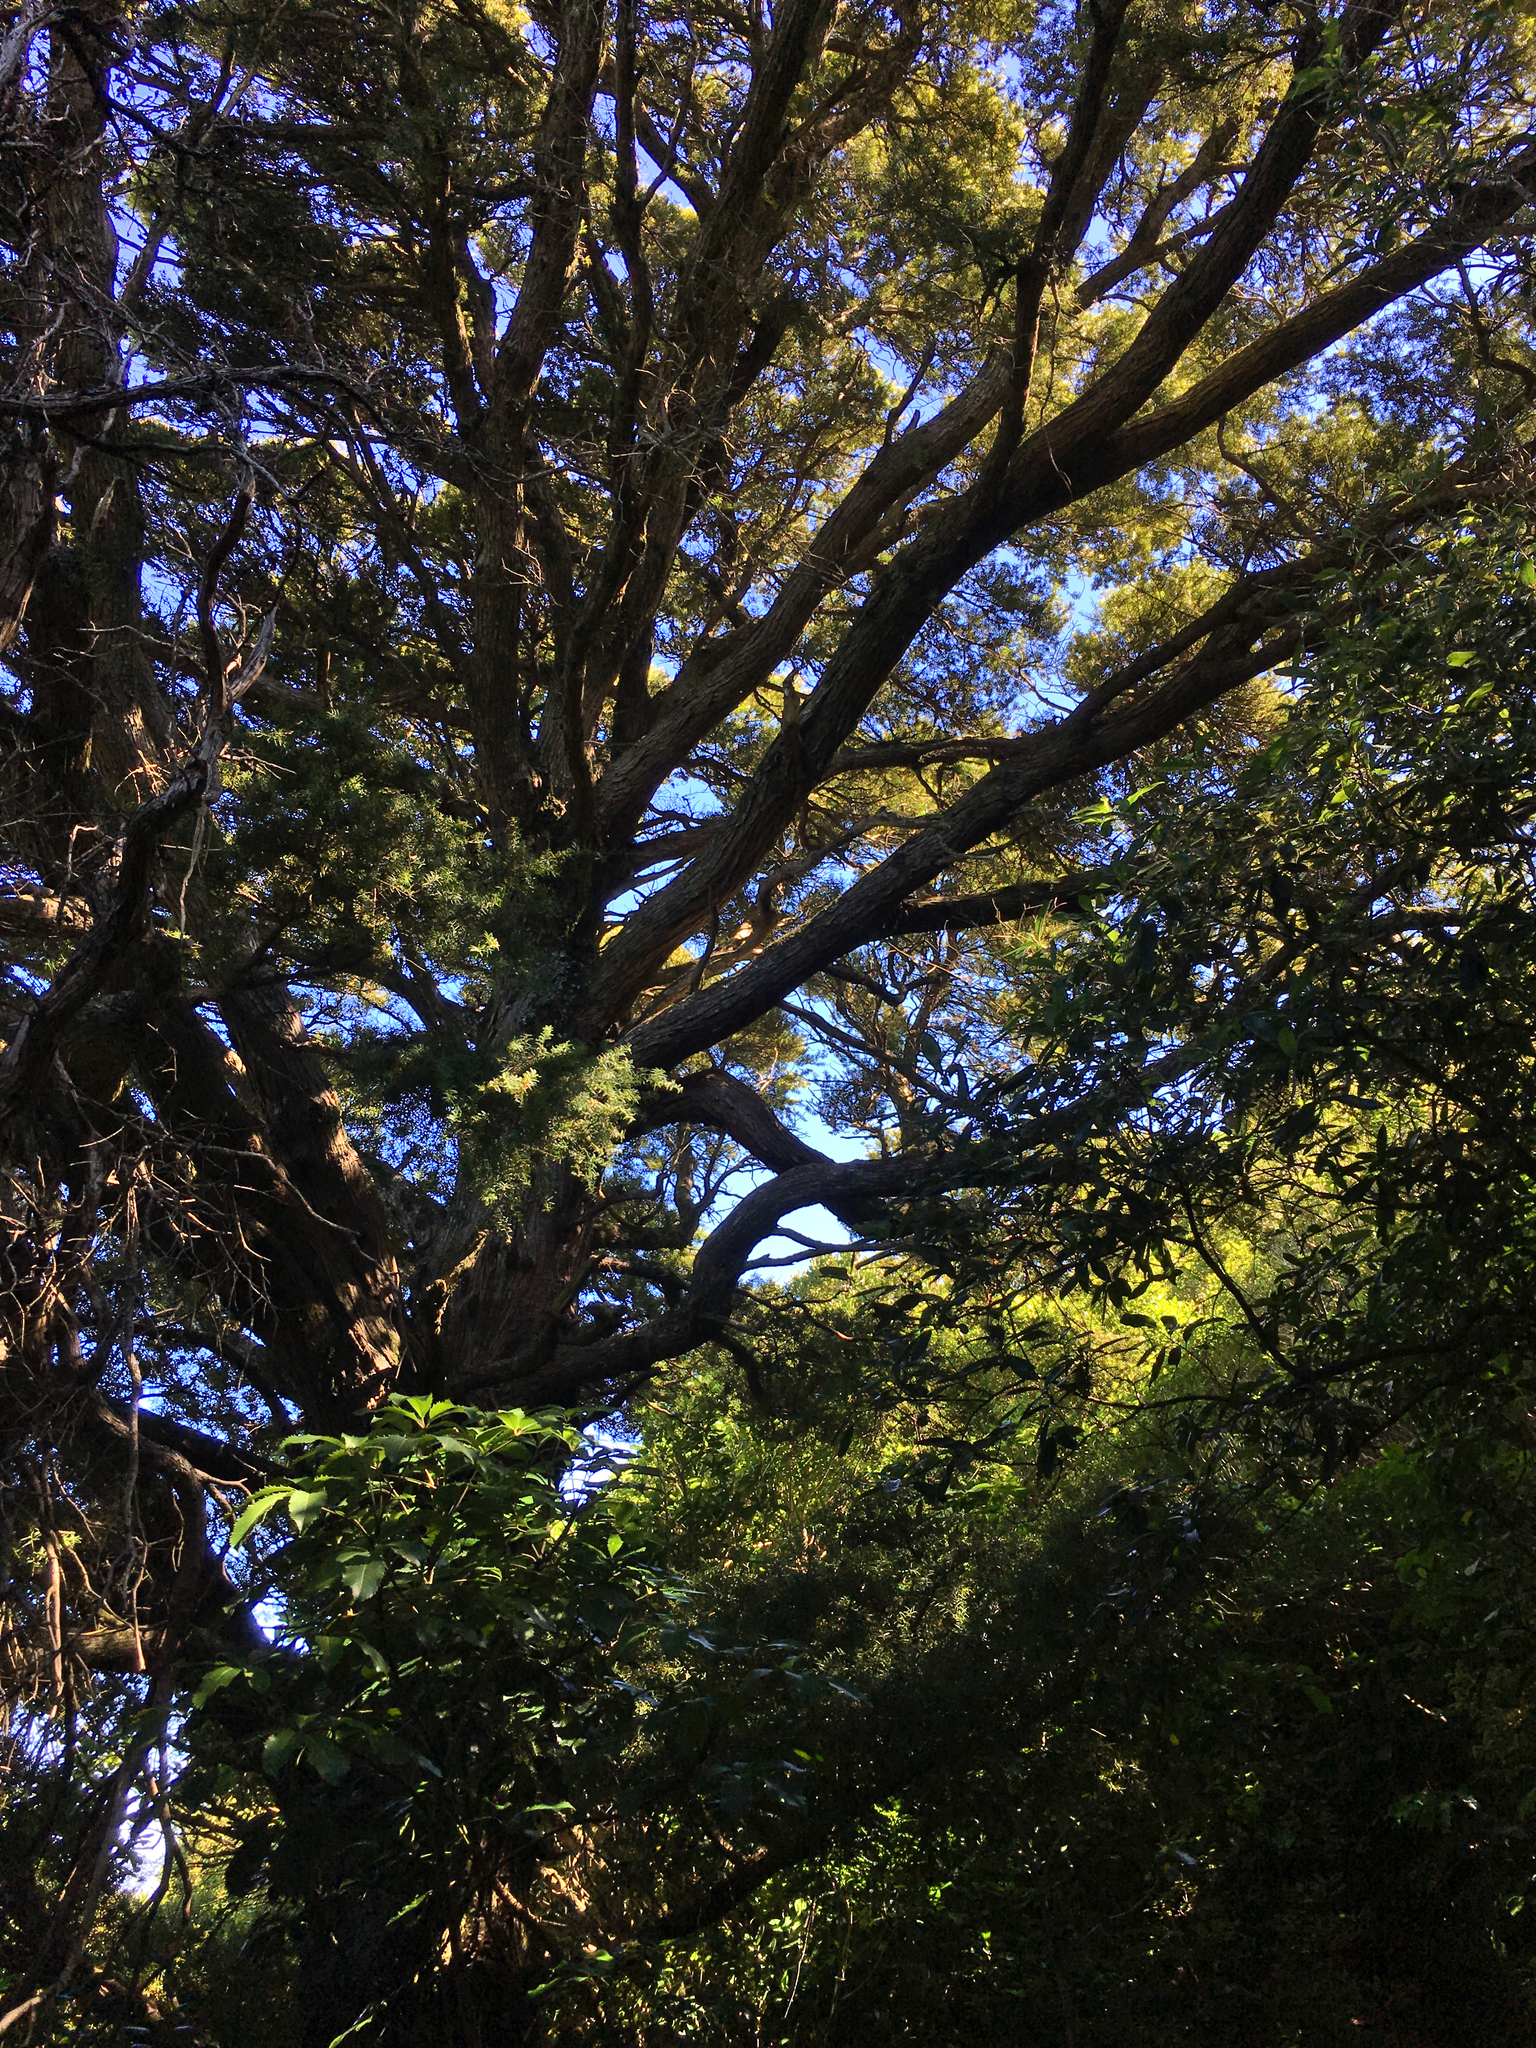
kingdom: Plantae
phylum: Tracheophyta
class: Pinopsida
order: Pinales
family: Podocarpaceae
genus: Podocarpus
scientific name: Podocarpus totara
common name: Totara
